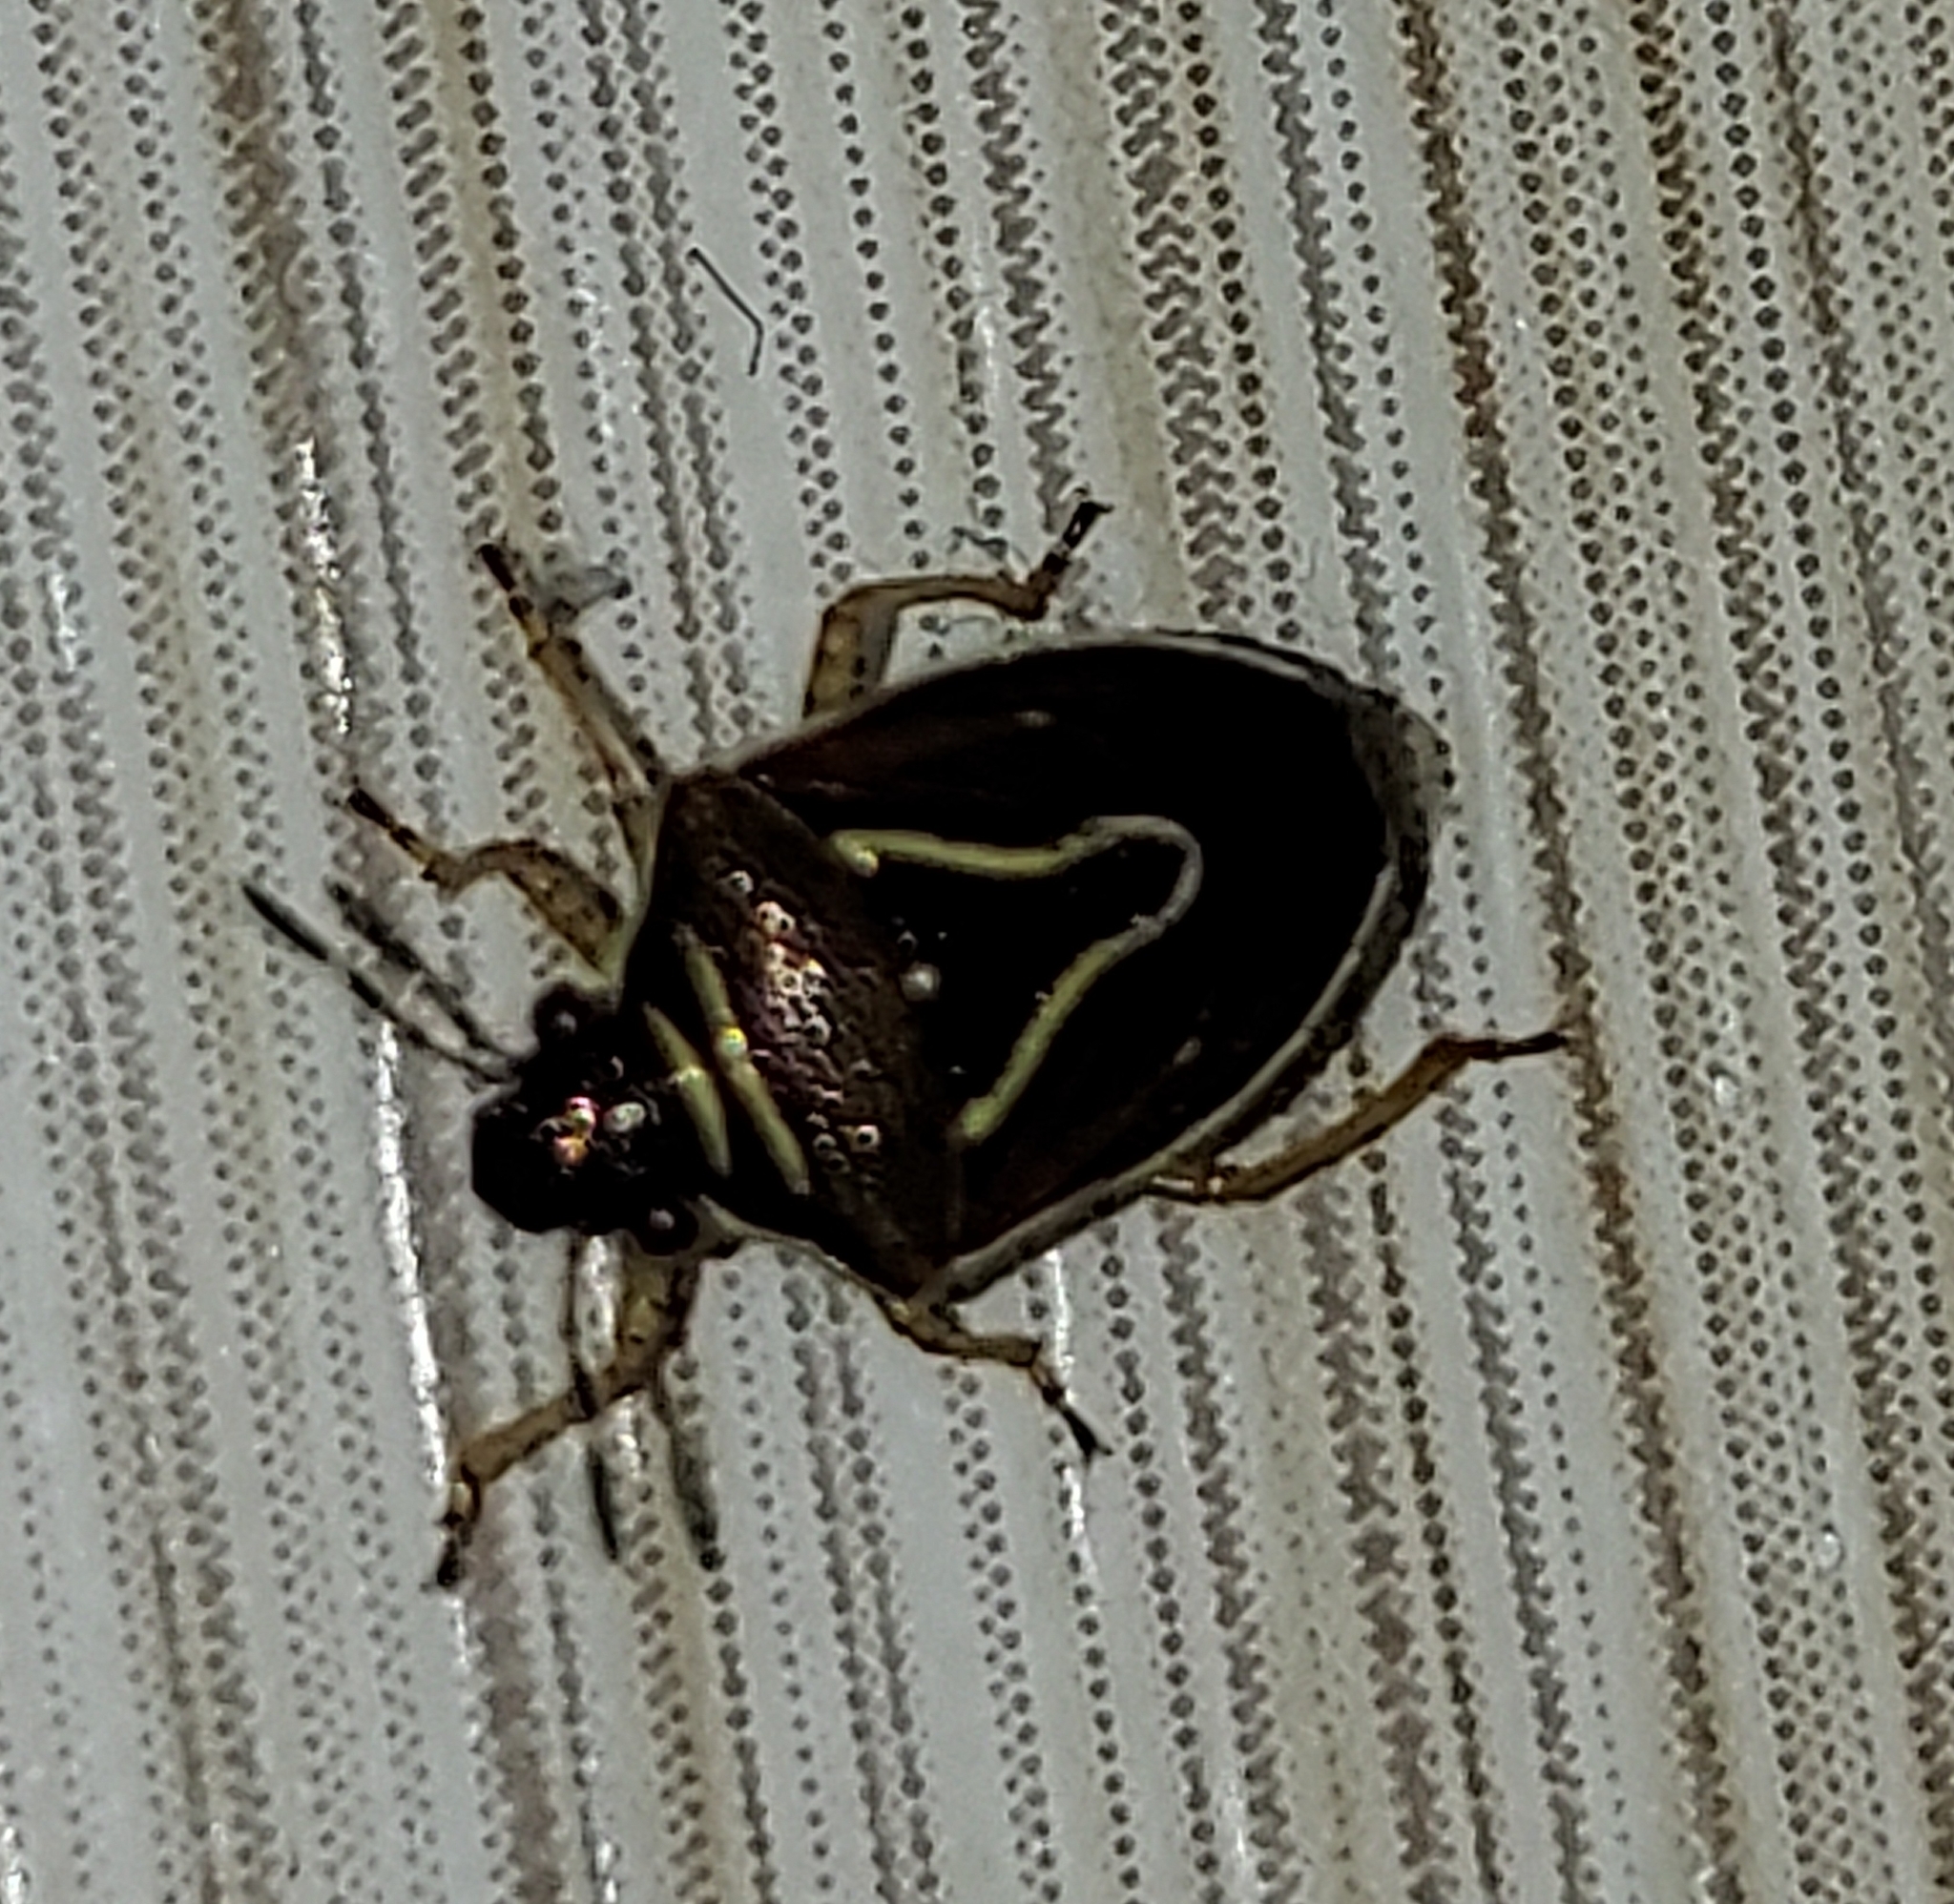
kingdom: Animalia
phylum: Arthropoda
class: Insecta
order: Hemiptera
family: Pentatomidae
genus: Mormidea
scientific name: Mormidea lugens
